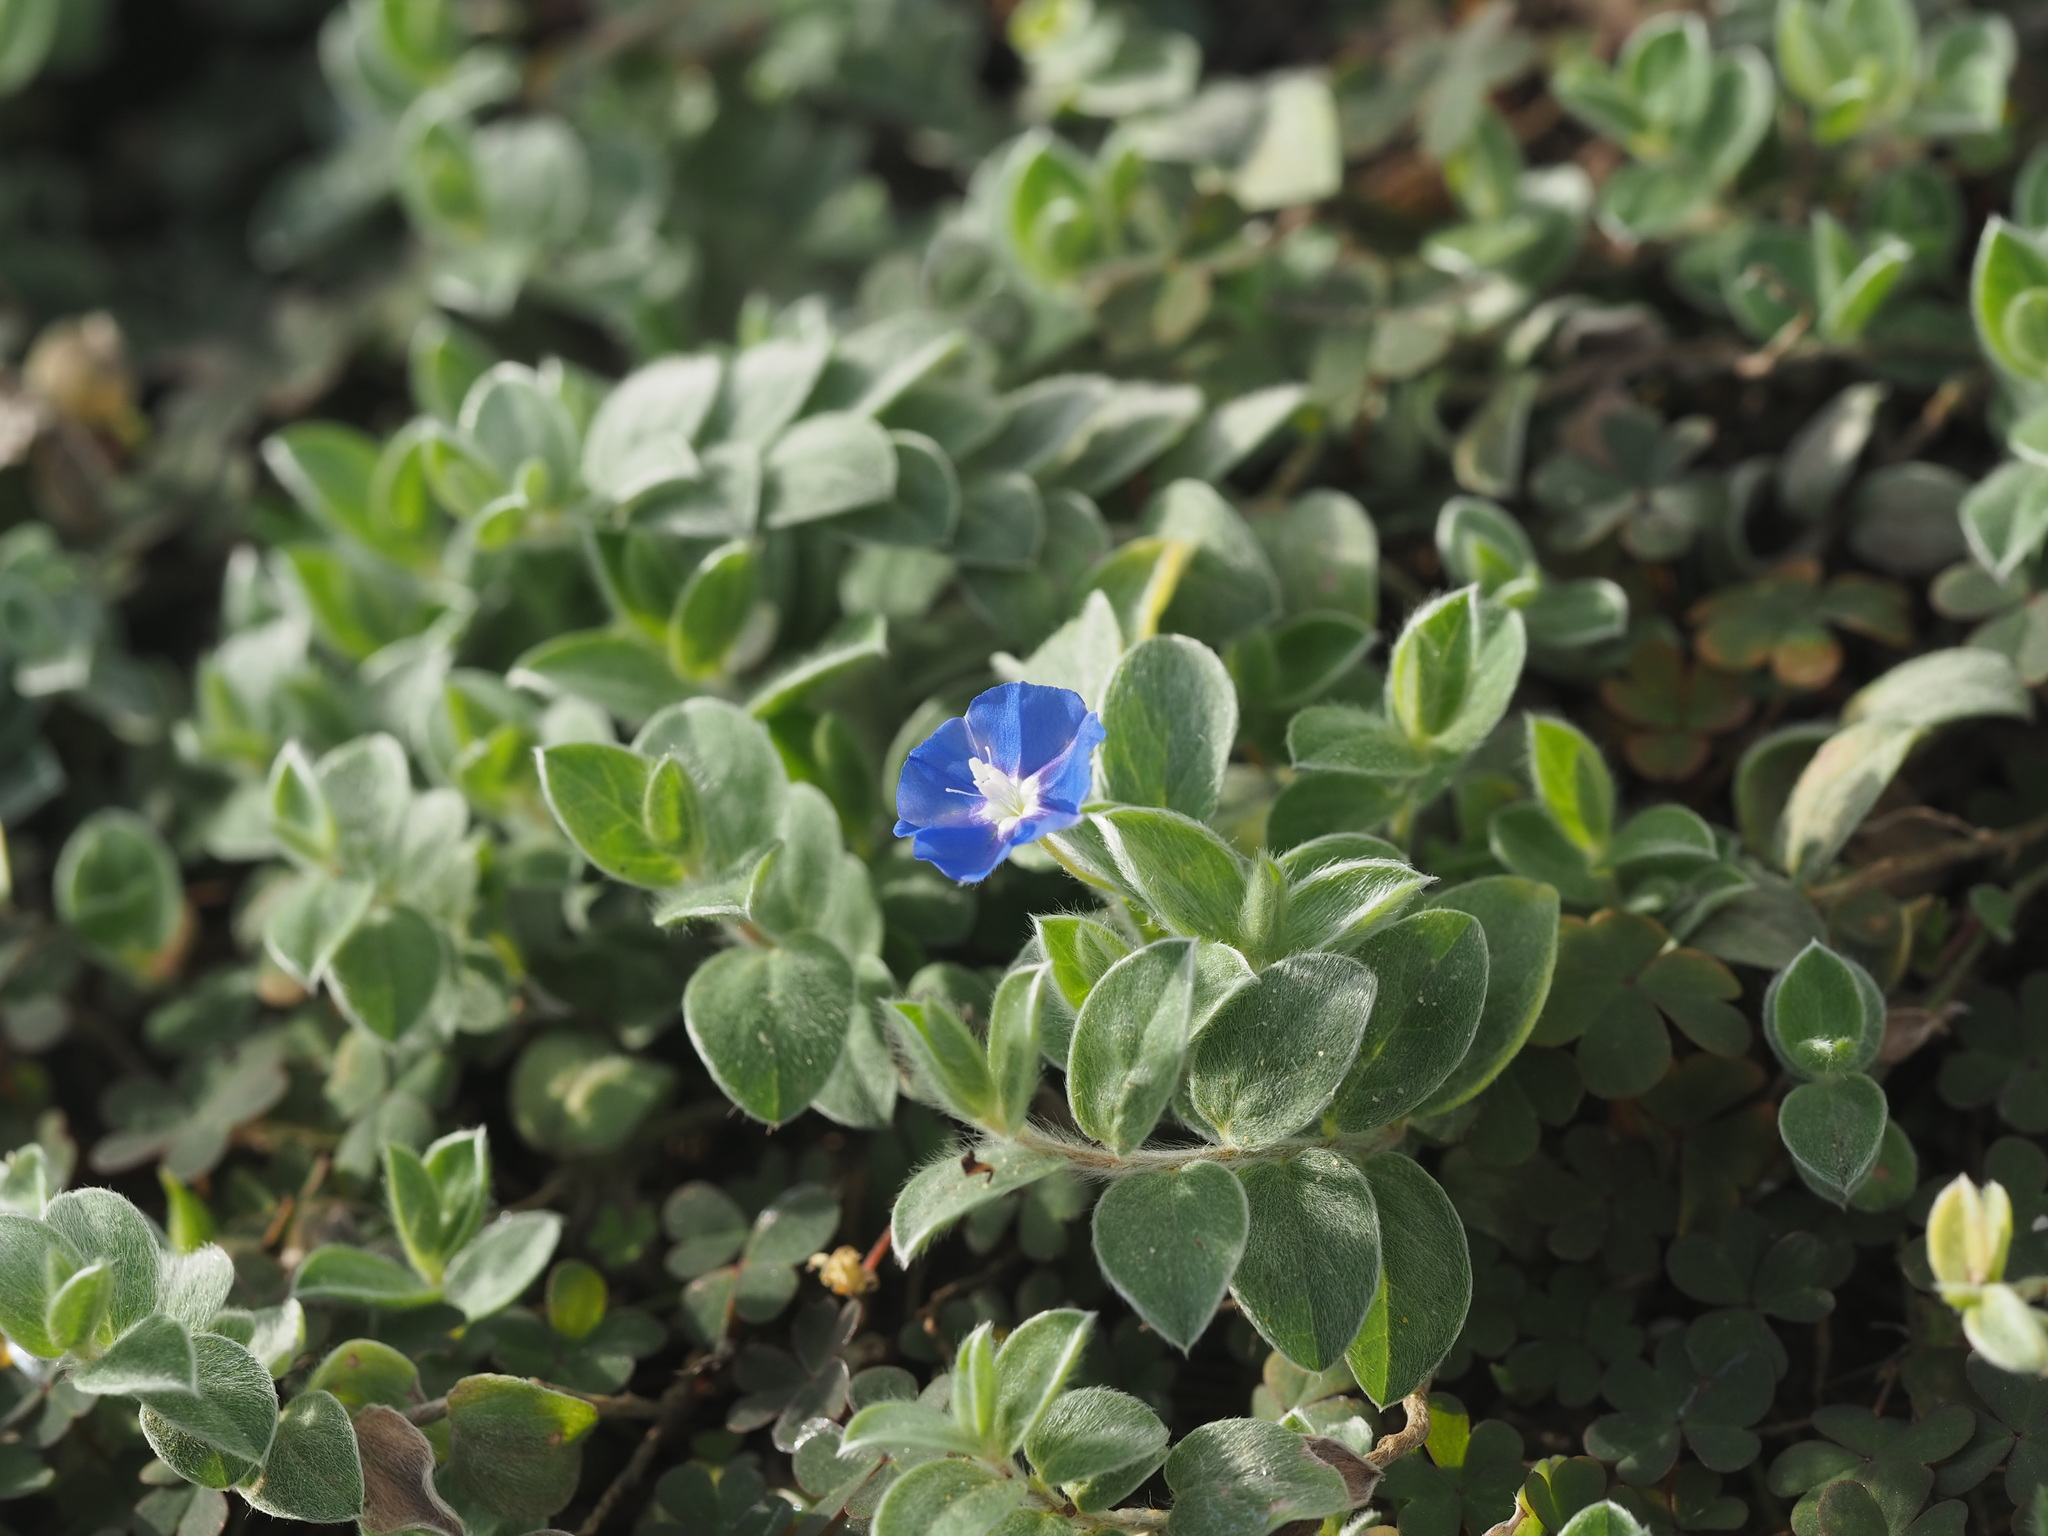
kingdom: Plantae
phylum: Tracheophyta
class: Magnoliopsida
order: Solanales
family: Convolvulaceae
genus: Evolvulus
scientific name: Evolvulus alsinoides
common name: Slender dwarf morning-glory
